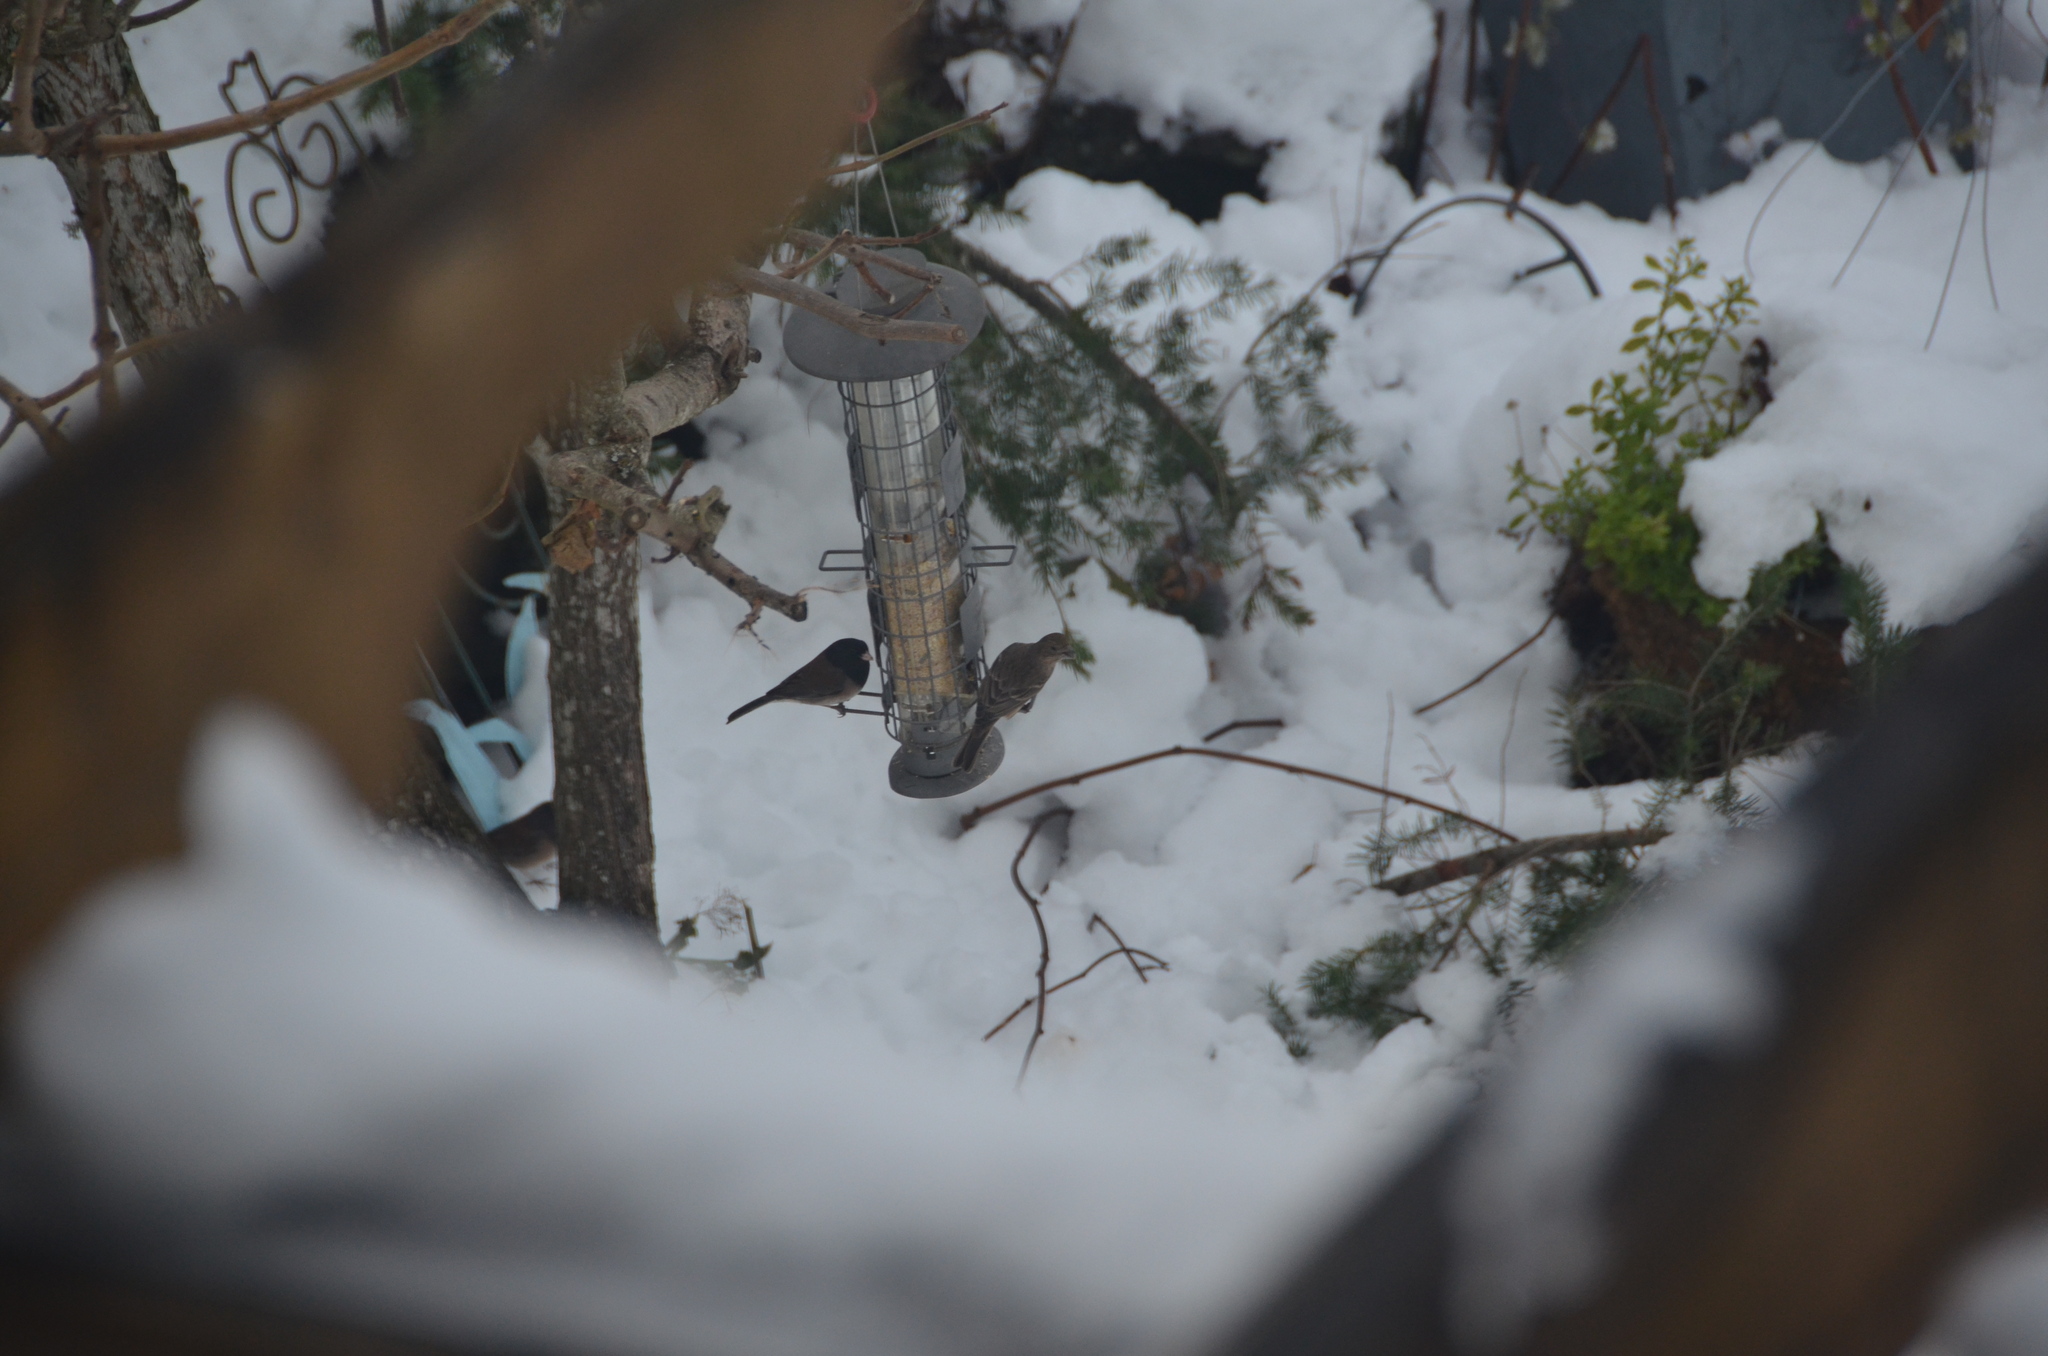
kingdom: Animalia
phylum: Chordata
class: Aves
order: Passeriformes
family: Passerellidae
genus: Junco
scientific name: Junco hyemalis
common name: Dark-eyed junco
